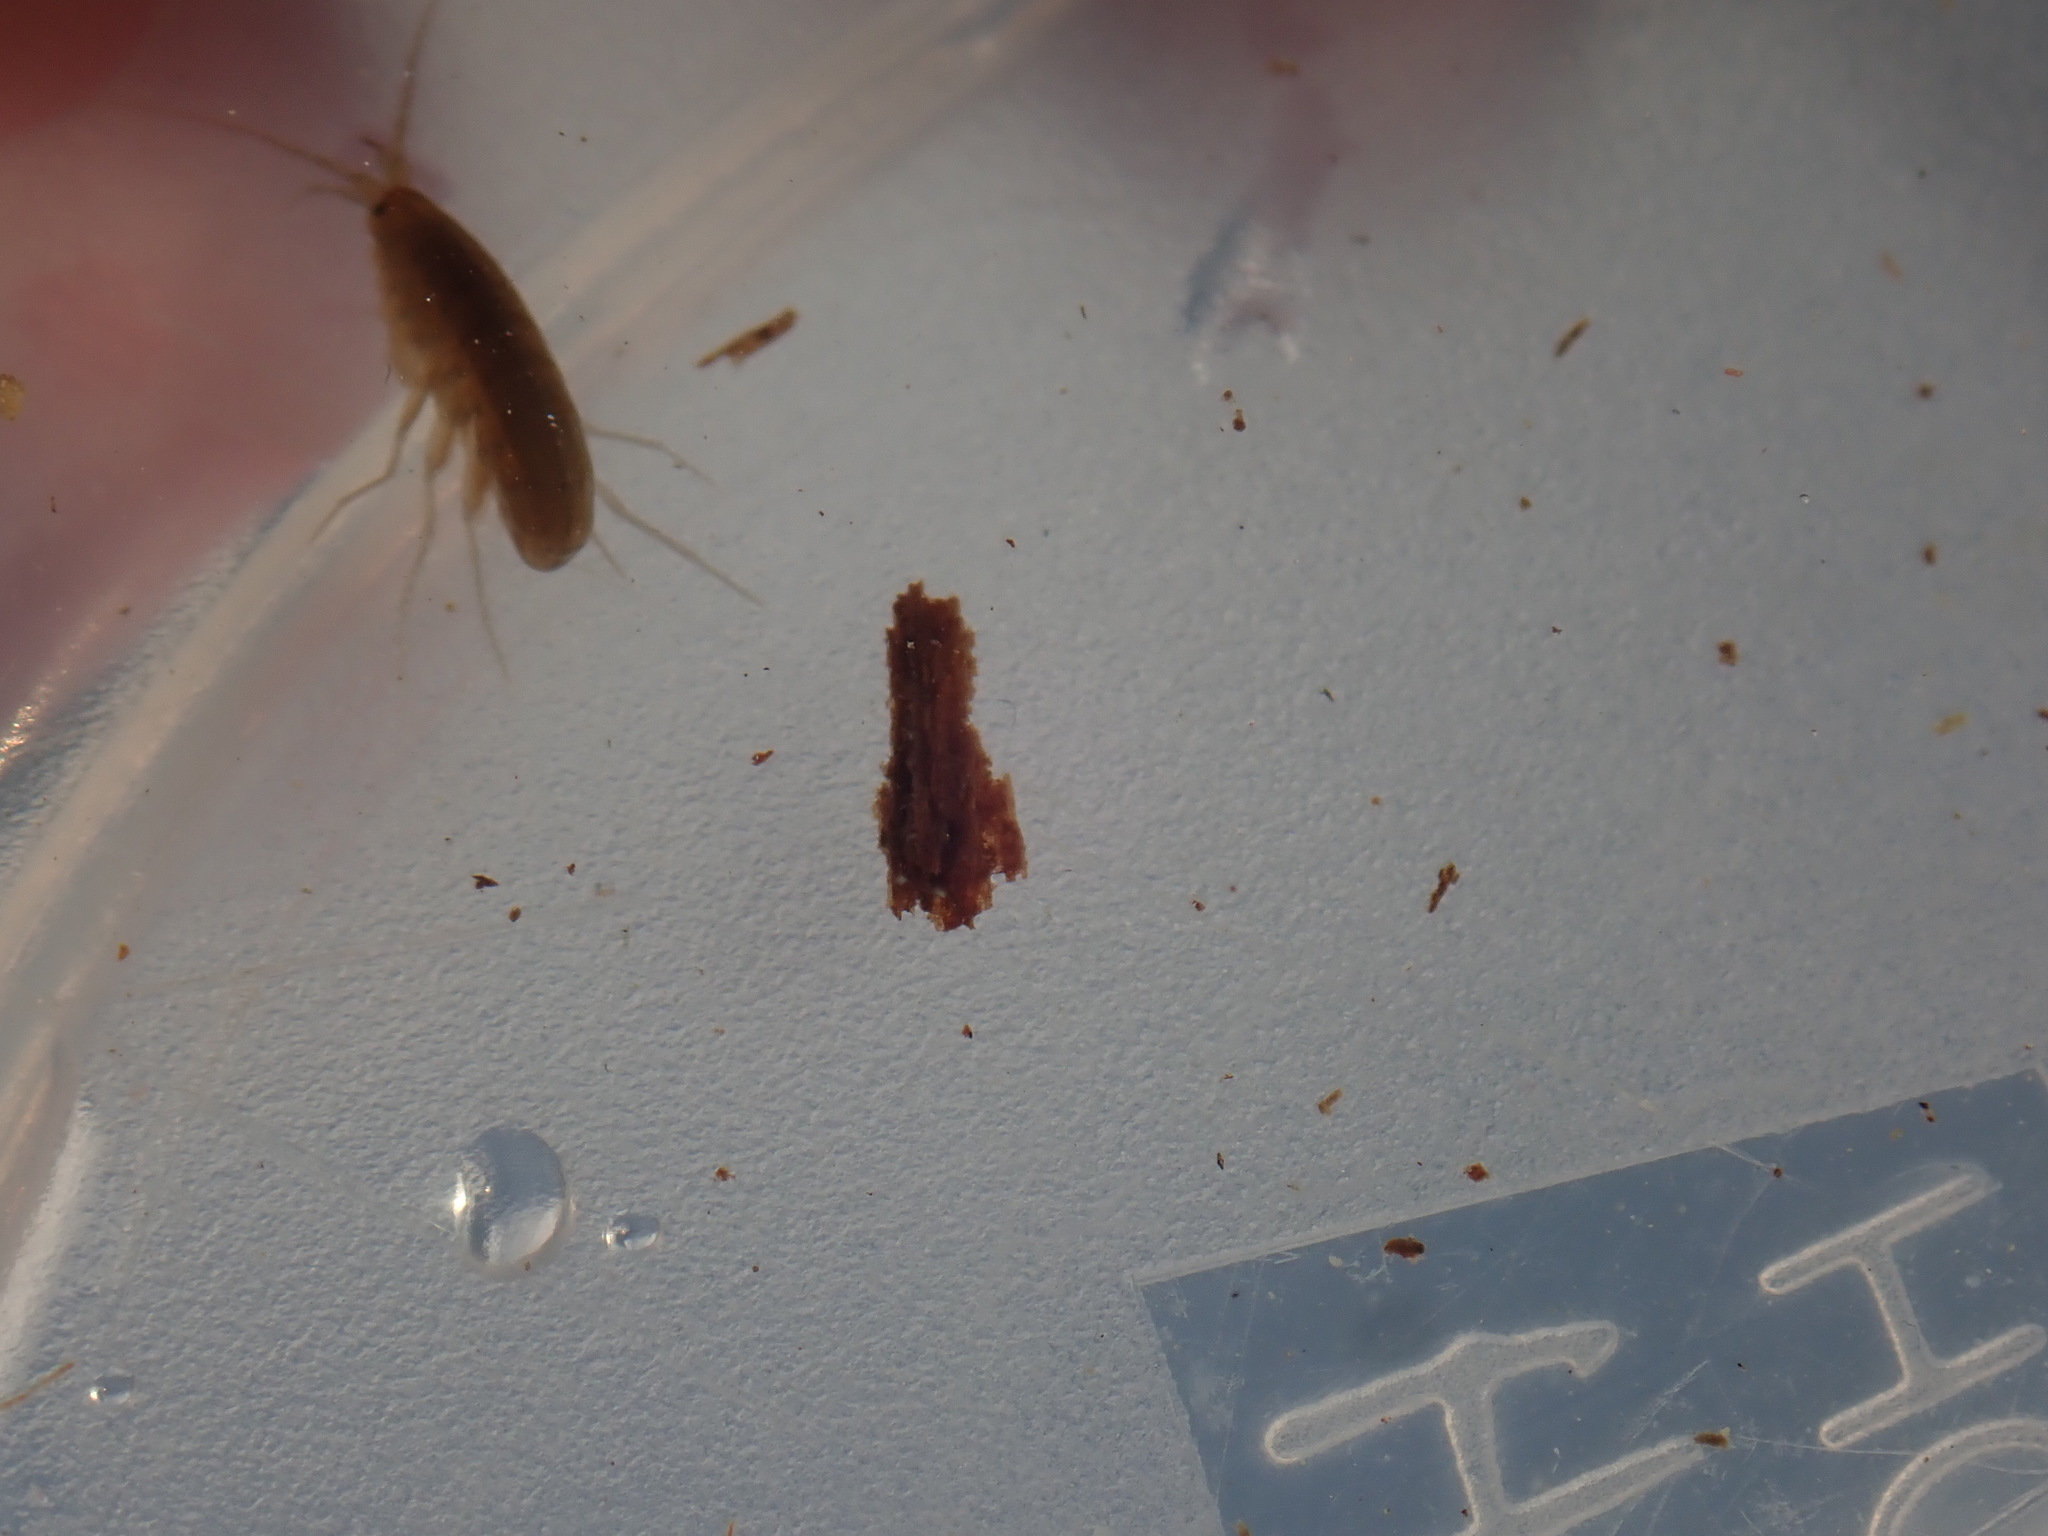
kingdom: Animalia
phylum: Arthropoda
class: Malacostraca
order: Amphipoda
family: Crangonyctidae
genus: Sicifera
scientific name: Sicifera chamberlaini
